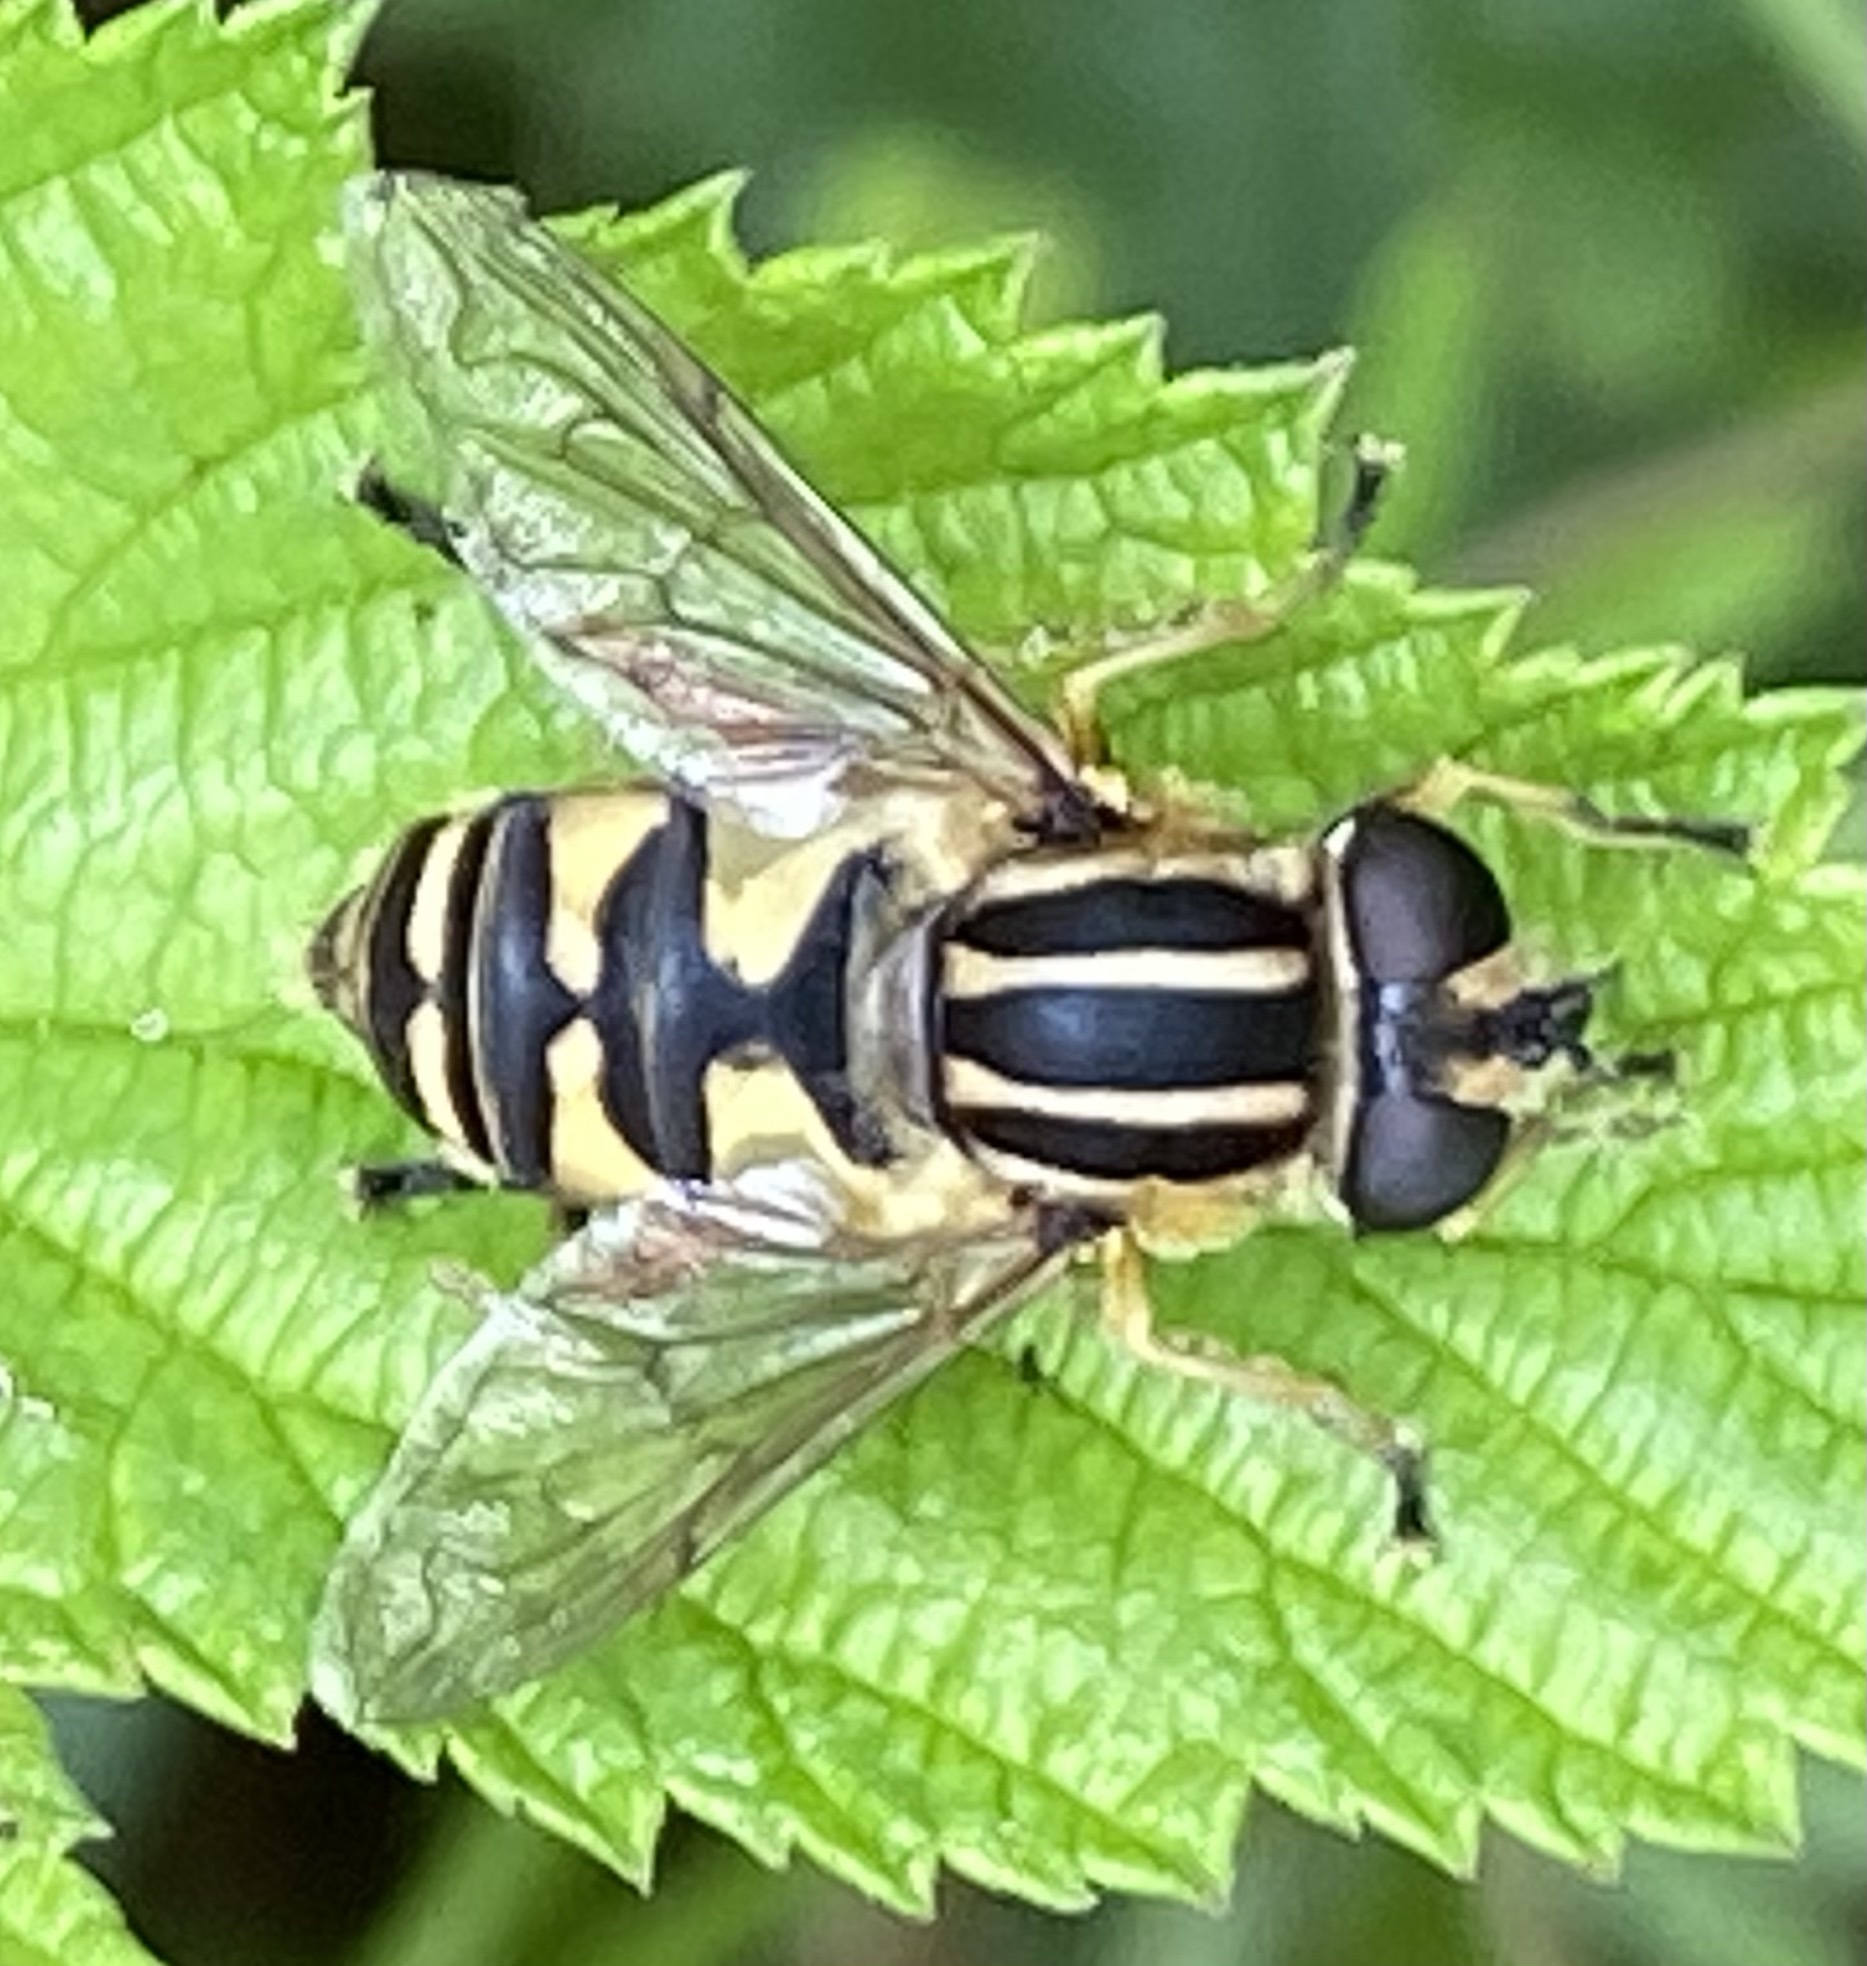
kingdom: Animalia
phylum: Arthropoda
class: Insecta
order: Diptera
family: Syrphidae
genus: Helophilus
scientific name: Helophilus pendulus
